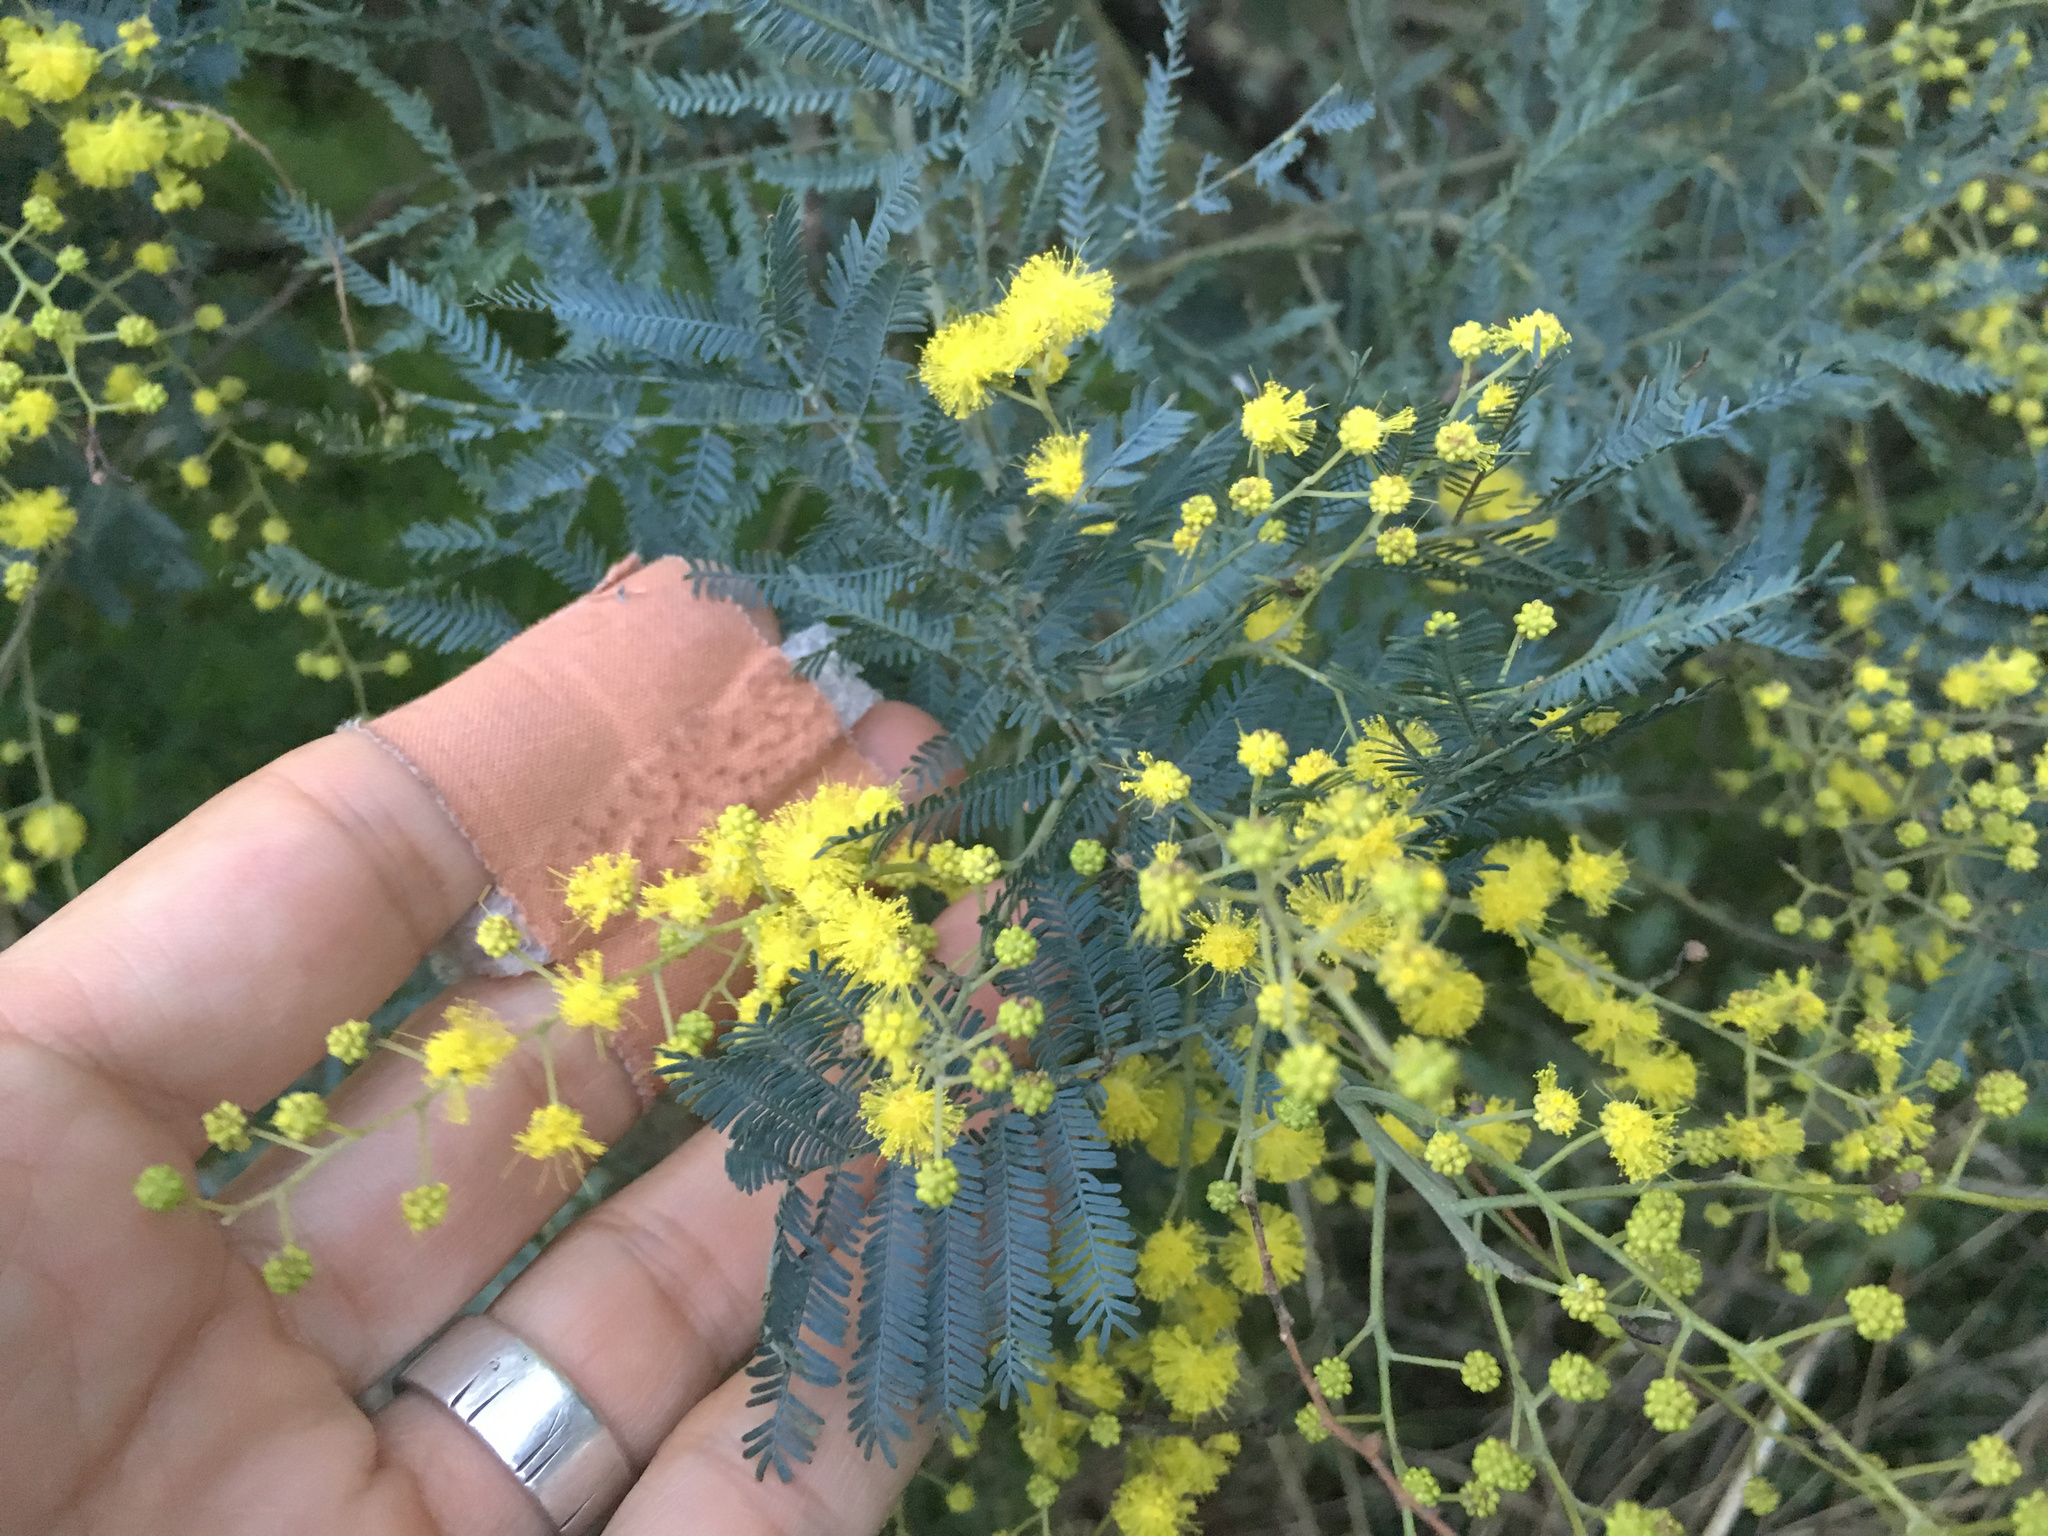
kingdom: Plantae
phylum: Tracheophyta
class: Magnoliopsida
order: Fabales
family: Fabaceae
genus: Acacia
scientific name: Acacia dealbata
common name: Silver wattle
